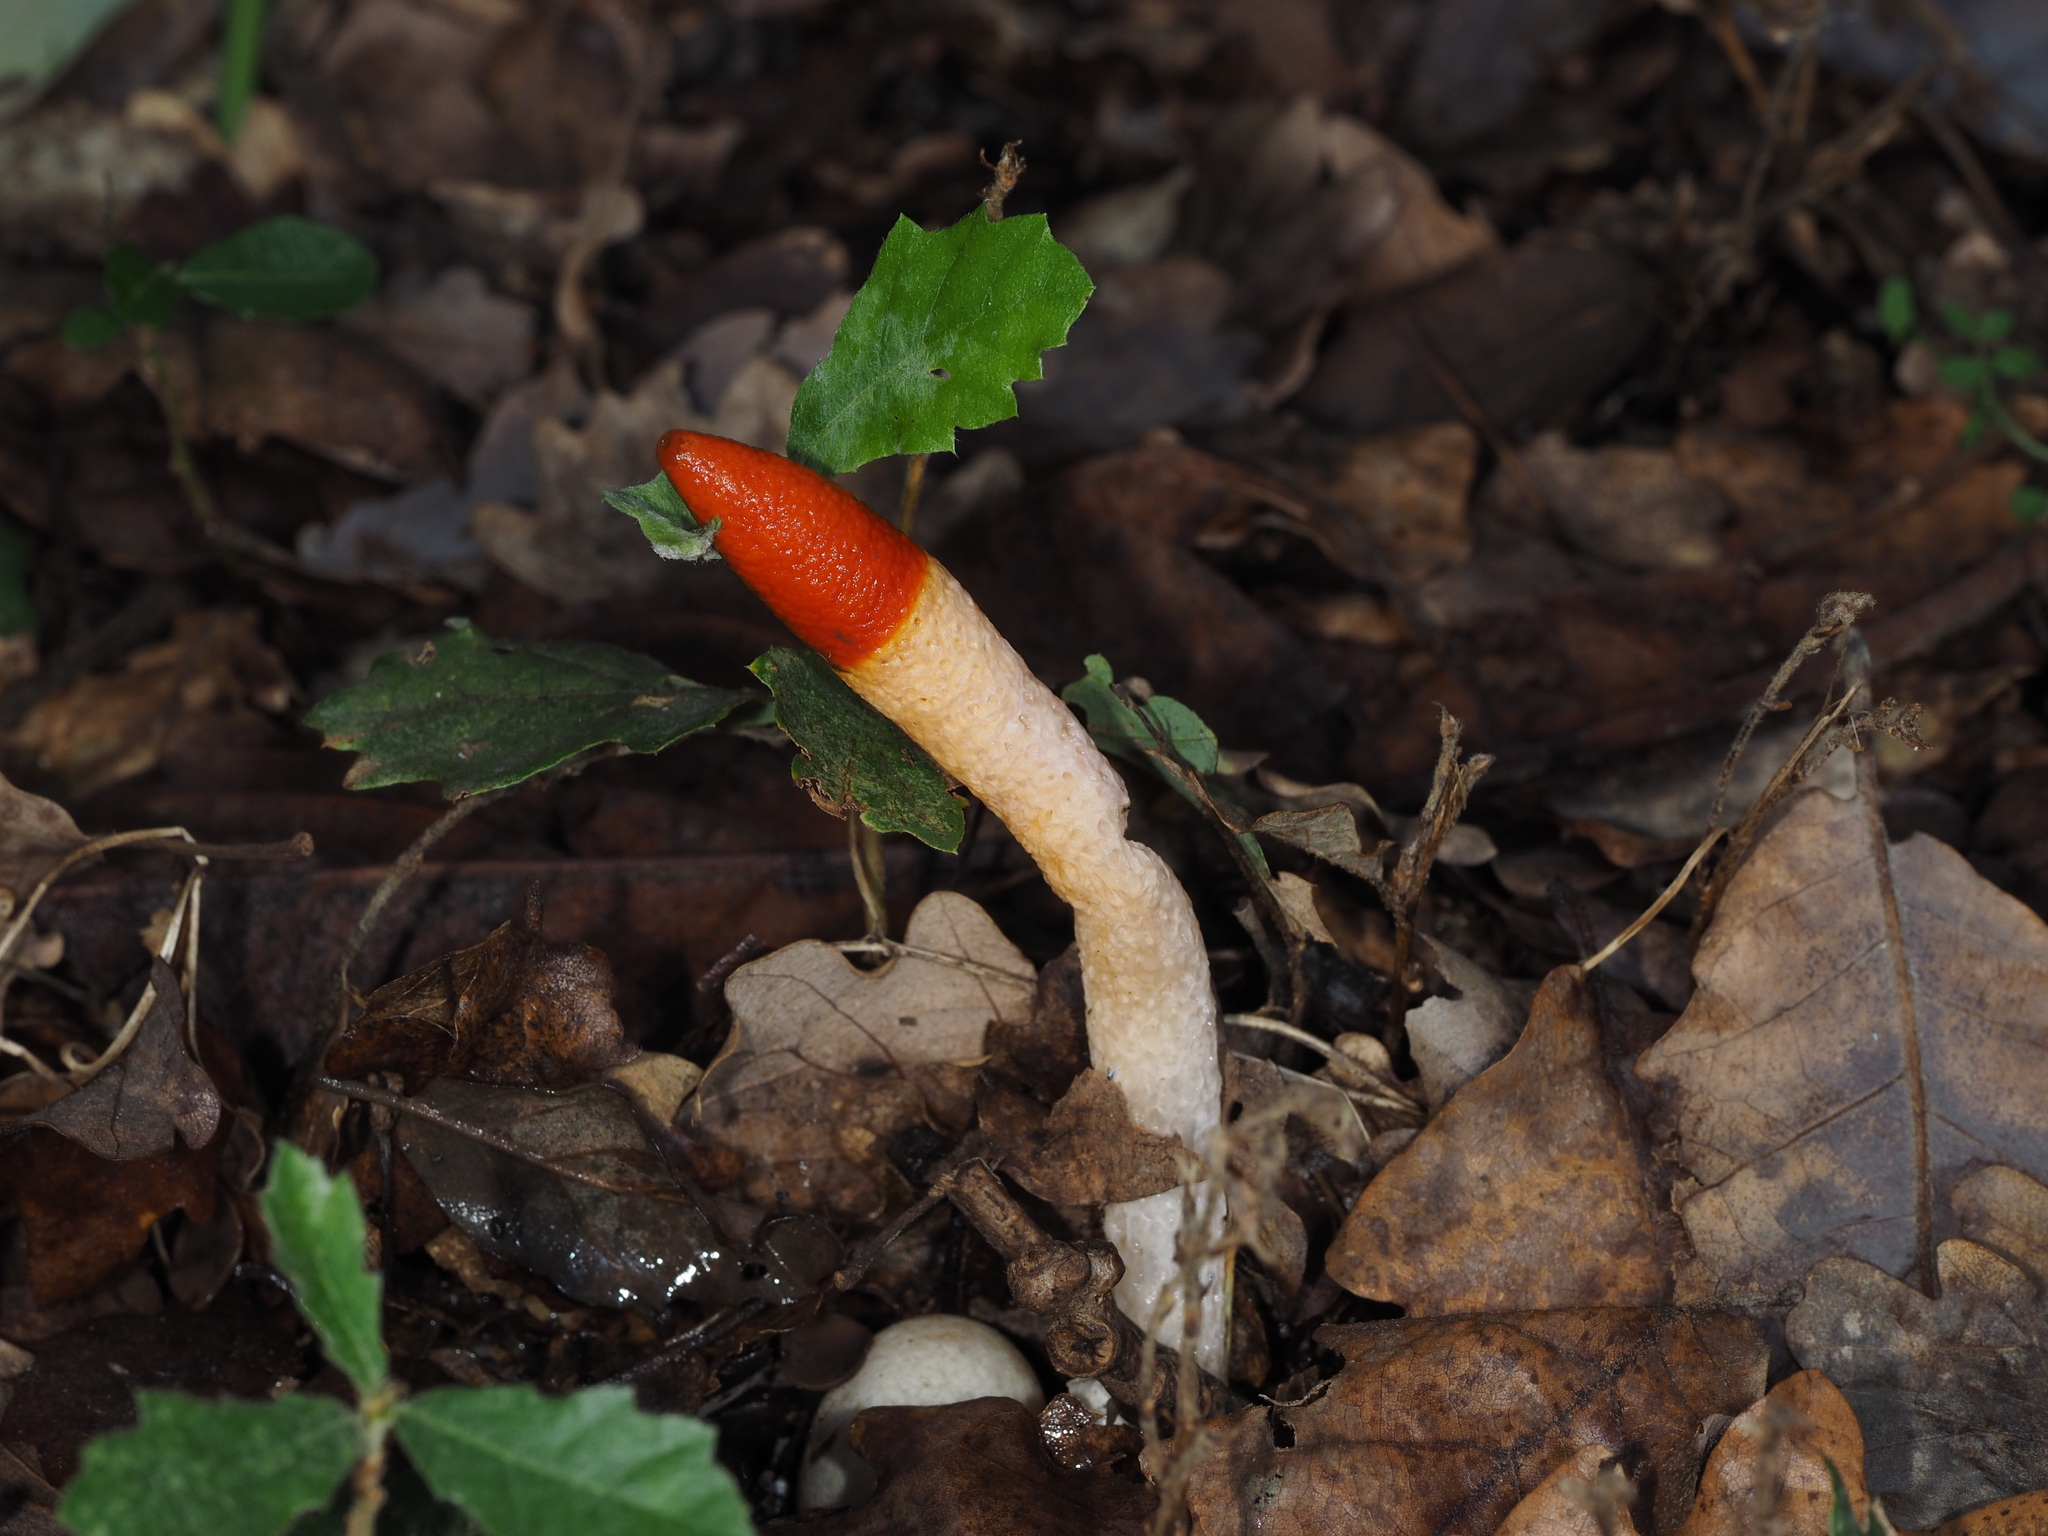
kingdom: Fungi
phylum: Basidiomycota
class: Agaricomycetes
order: Phallales
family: Phallaceae
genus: Mutinus
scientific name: Mutinus caninus
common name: Dog stinkhorn
